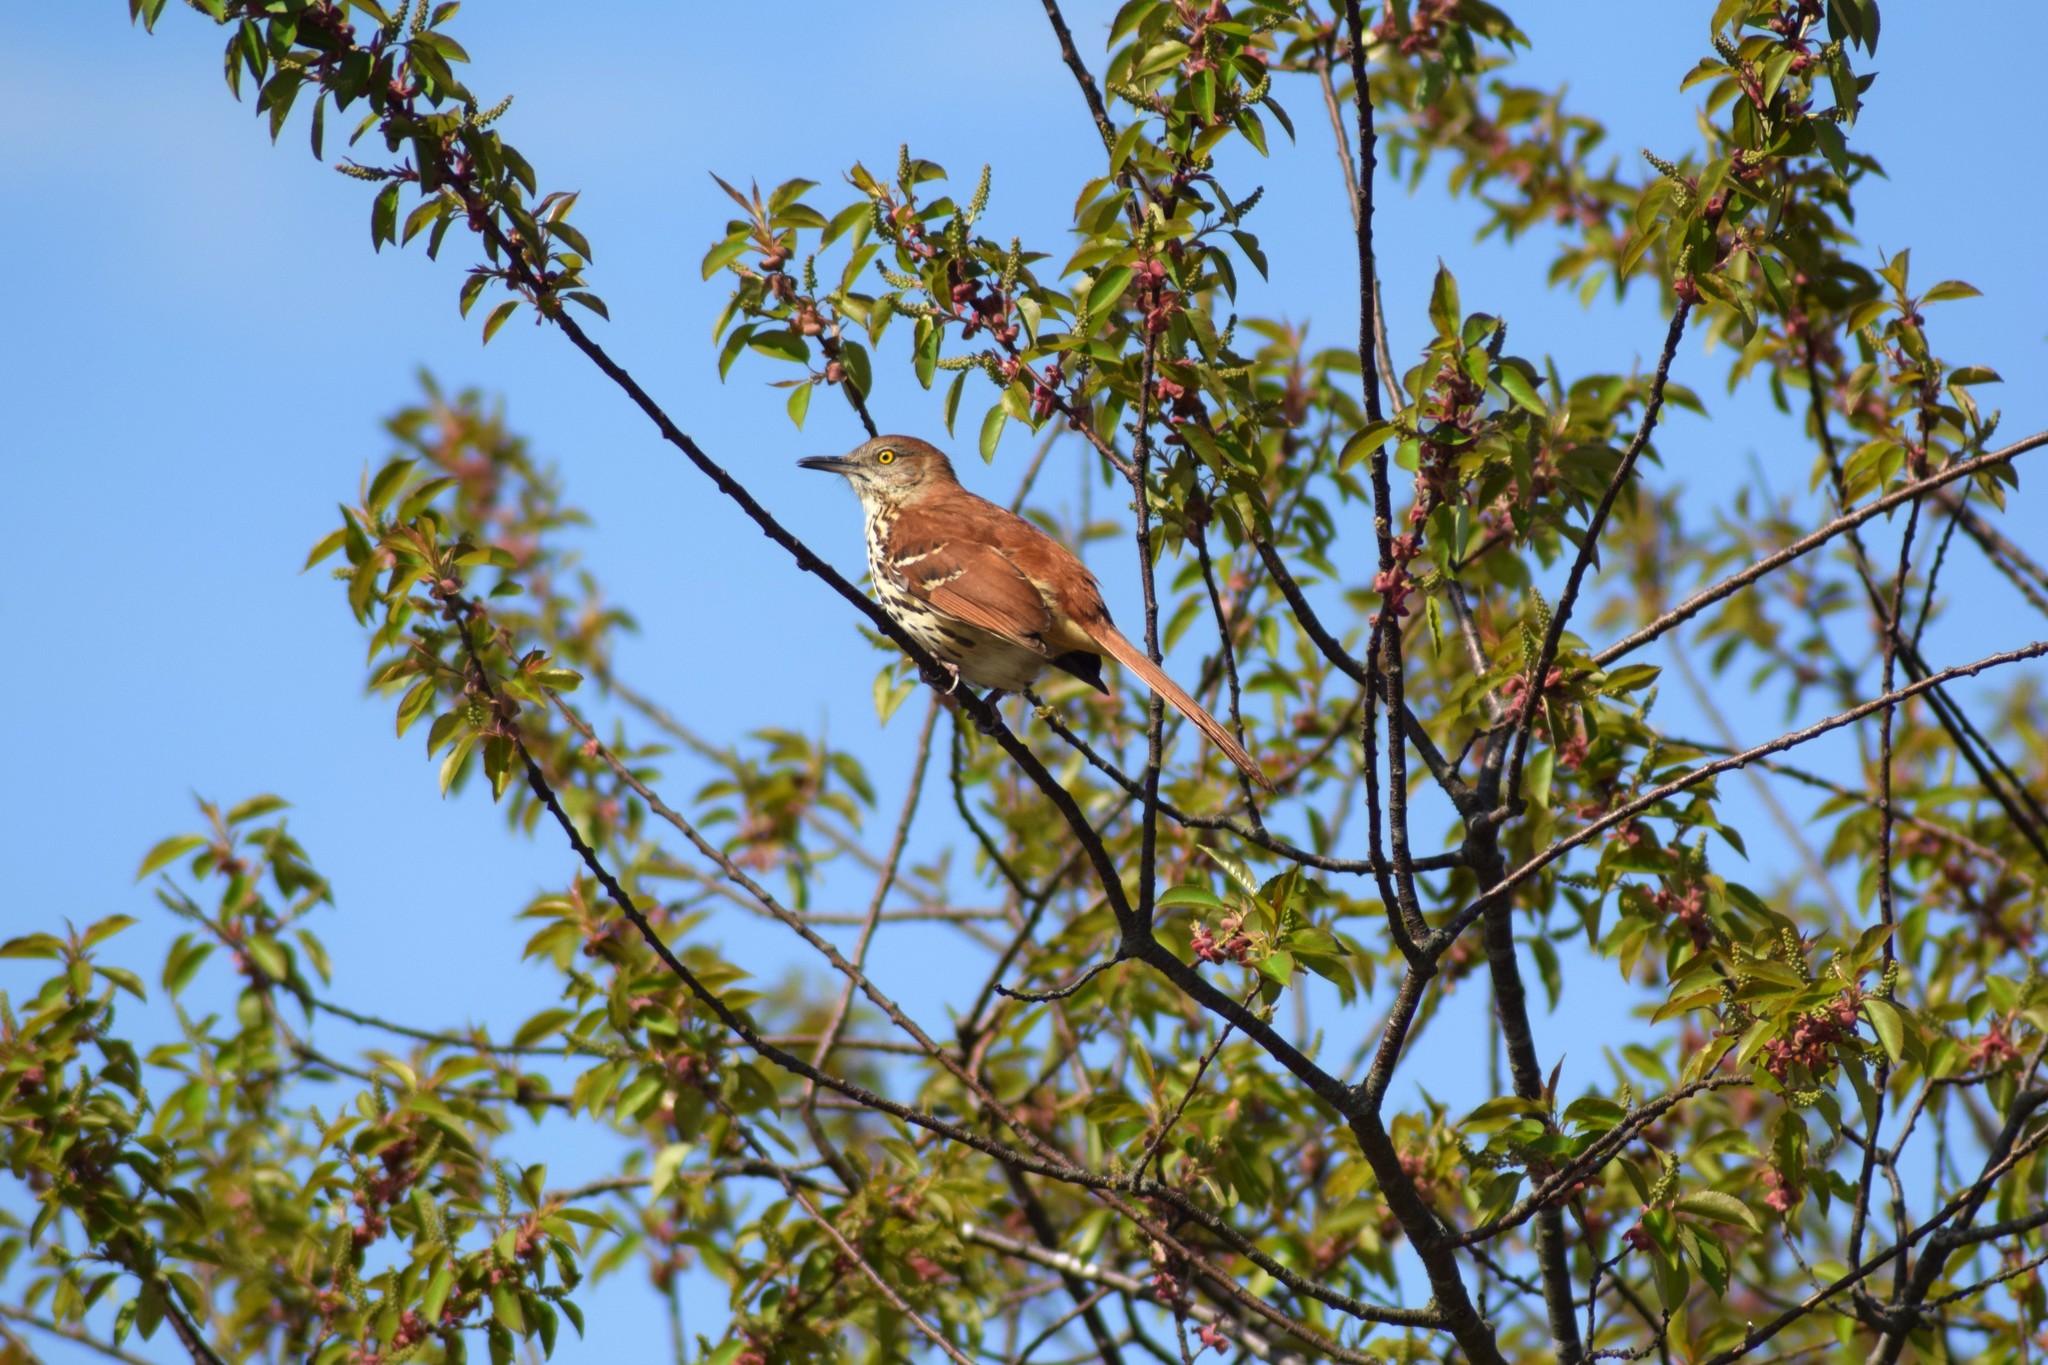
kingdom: Animalia
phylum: Chordata
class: Aves
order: Passeriformes
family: Mimidae
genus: Toxostoma
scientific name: Toxostoma rufum
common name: Brown thrasher
